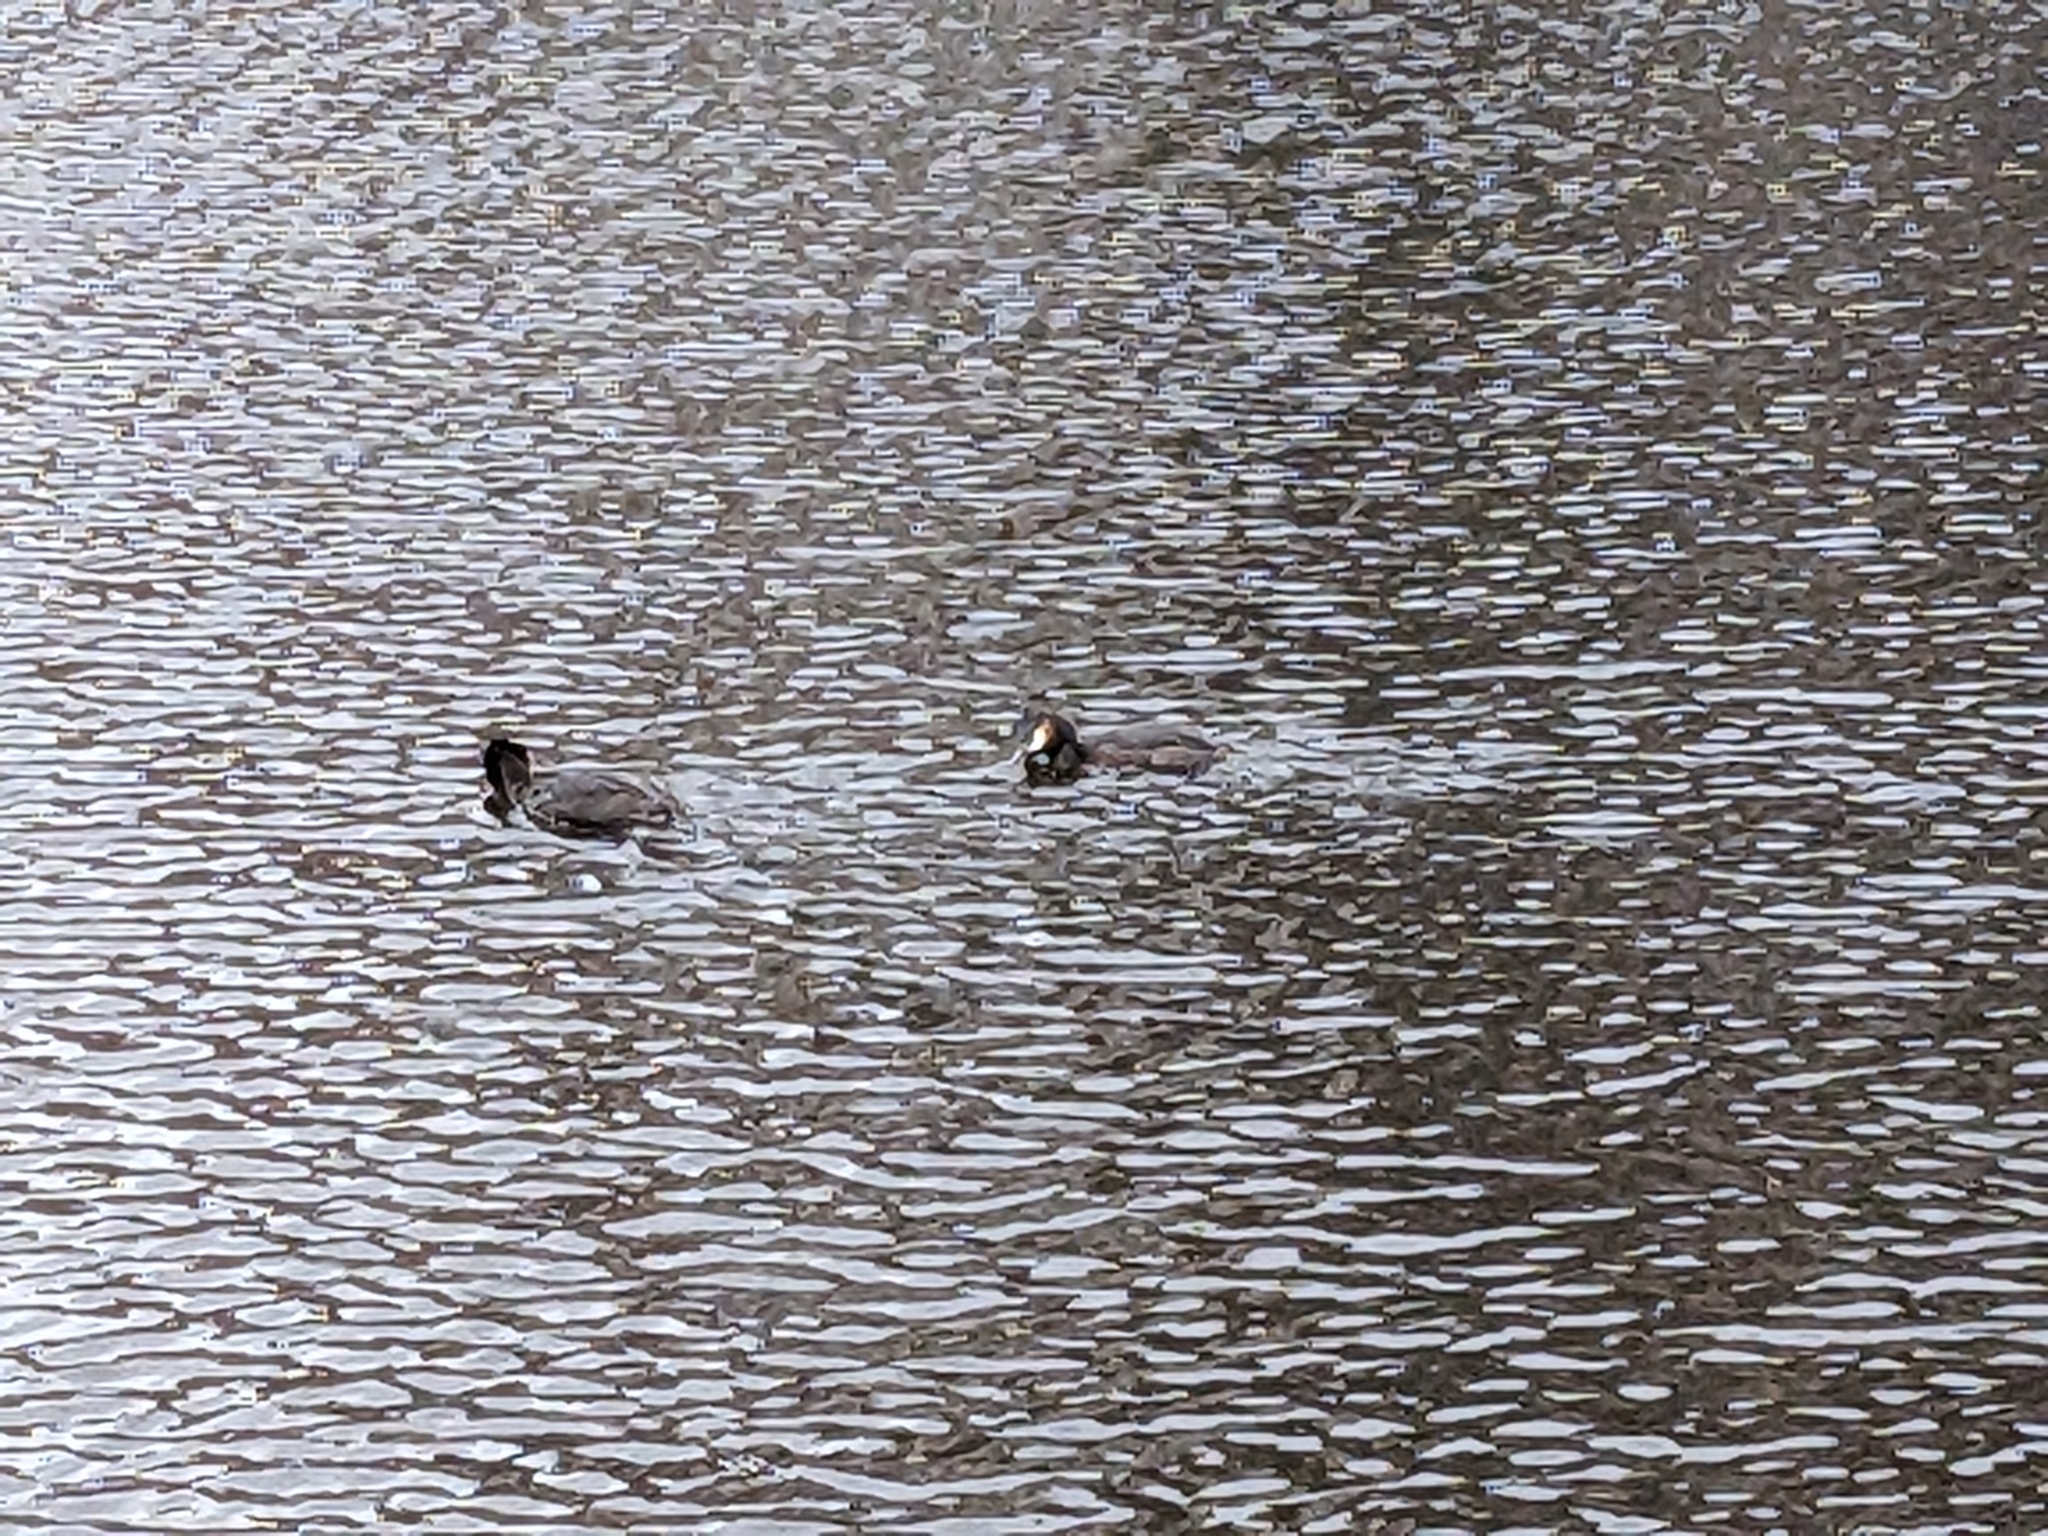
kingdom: Animalia
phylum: Chordata
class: Aves
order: Podicipediformes
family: Podicipedidae
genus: Podiceps
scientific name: Podiceps cristatus
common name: Great crested grebe
